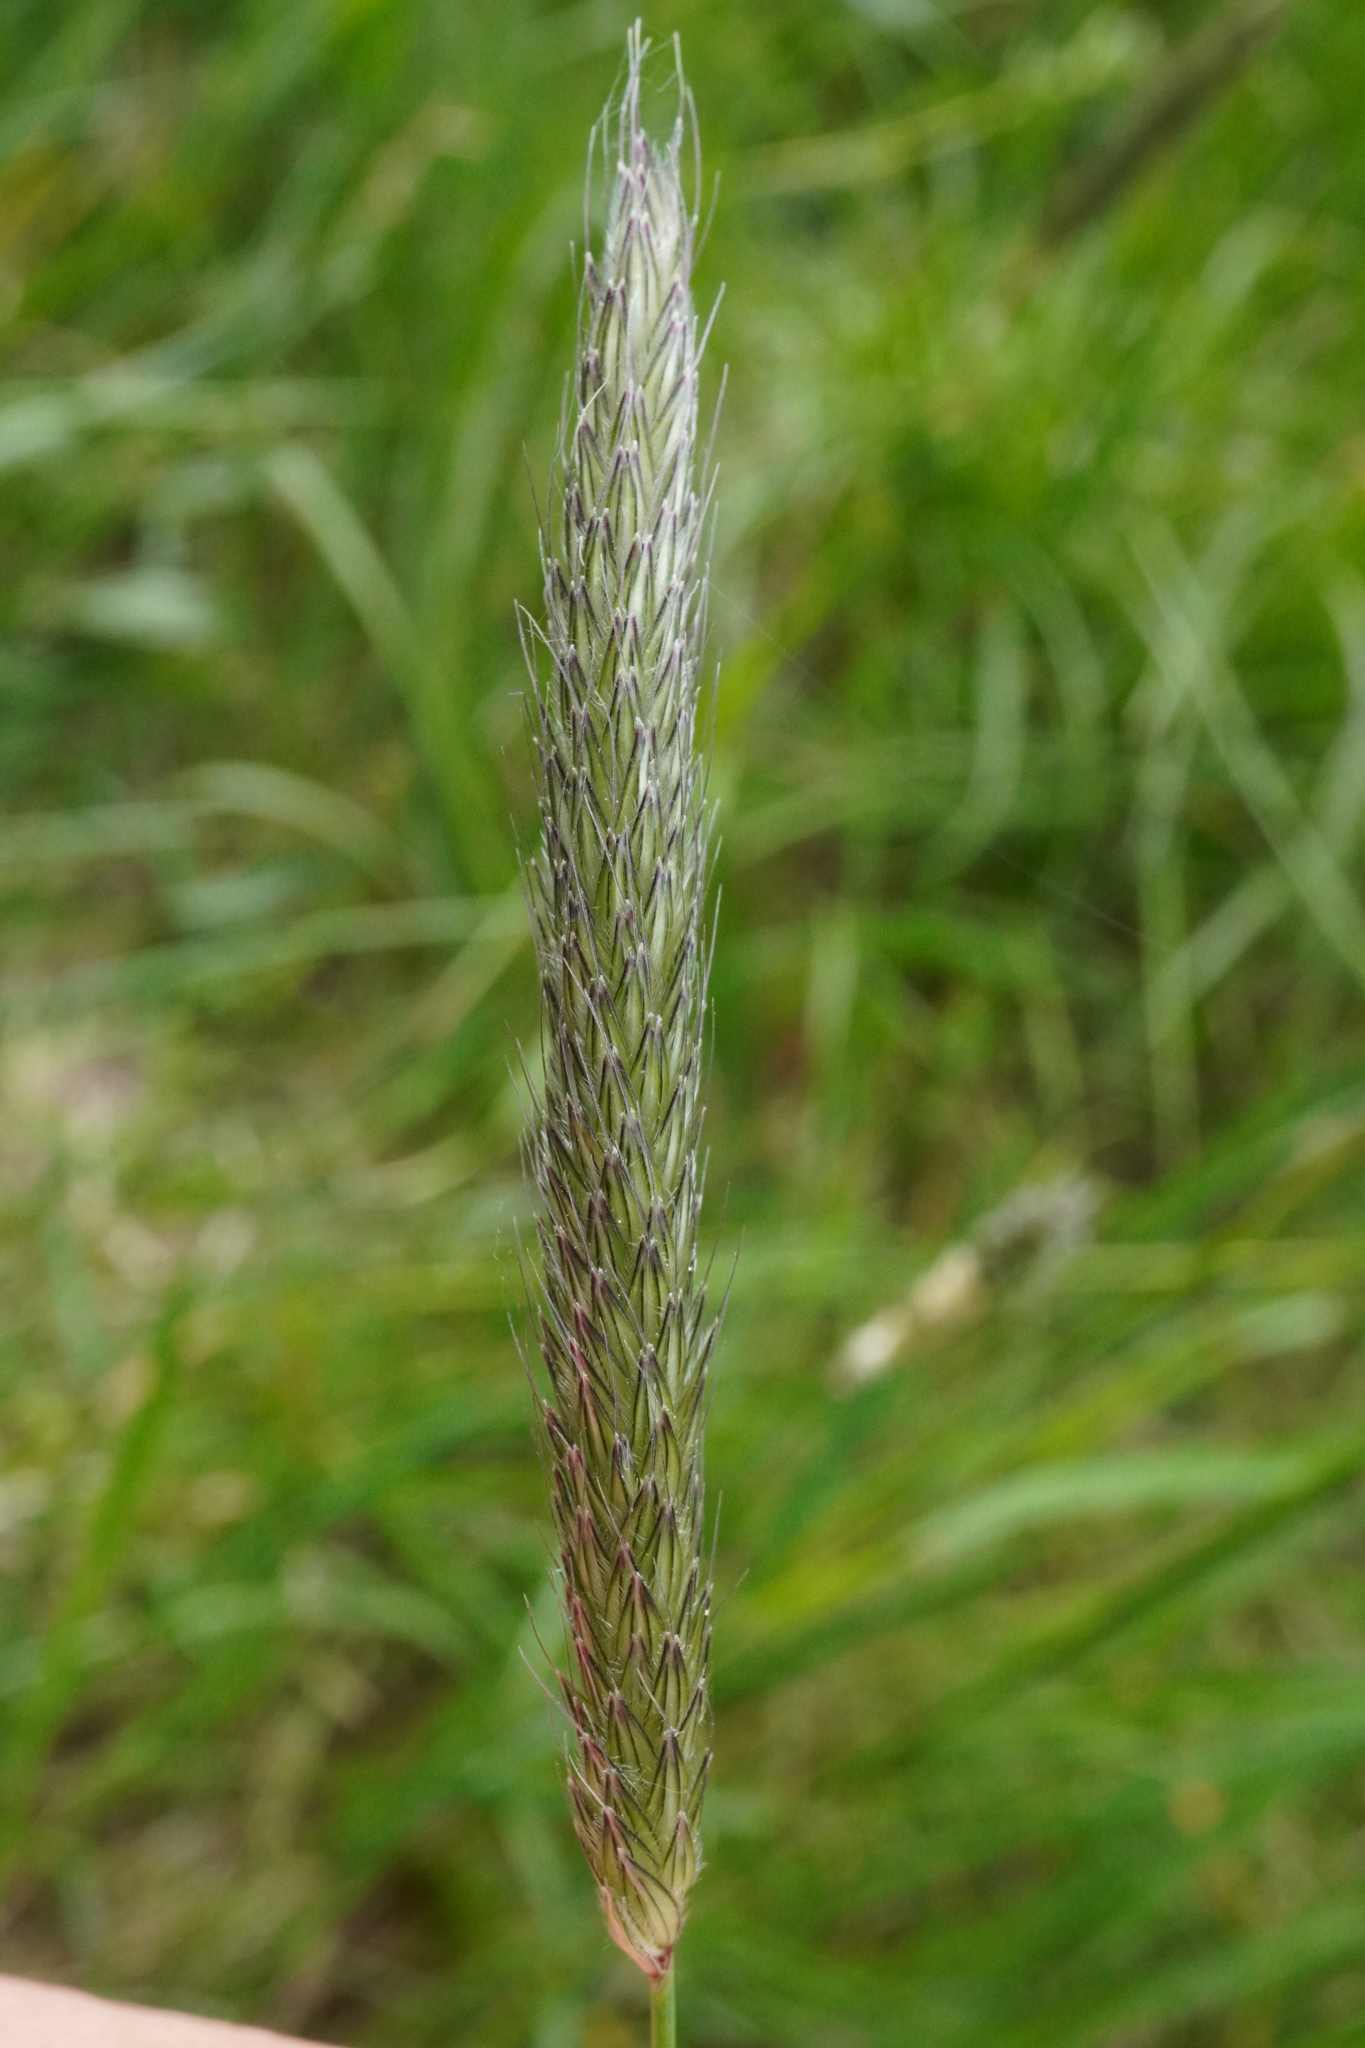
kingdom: Plantae
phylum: Tracheophyta
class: Liliopsida
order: Poales
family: Poaceae
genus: Alopecurus
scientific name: Alopecurus pratensis
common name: Meadow foxtail
